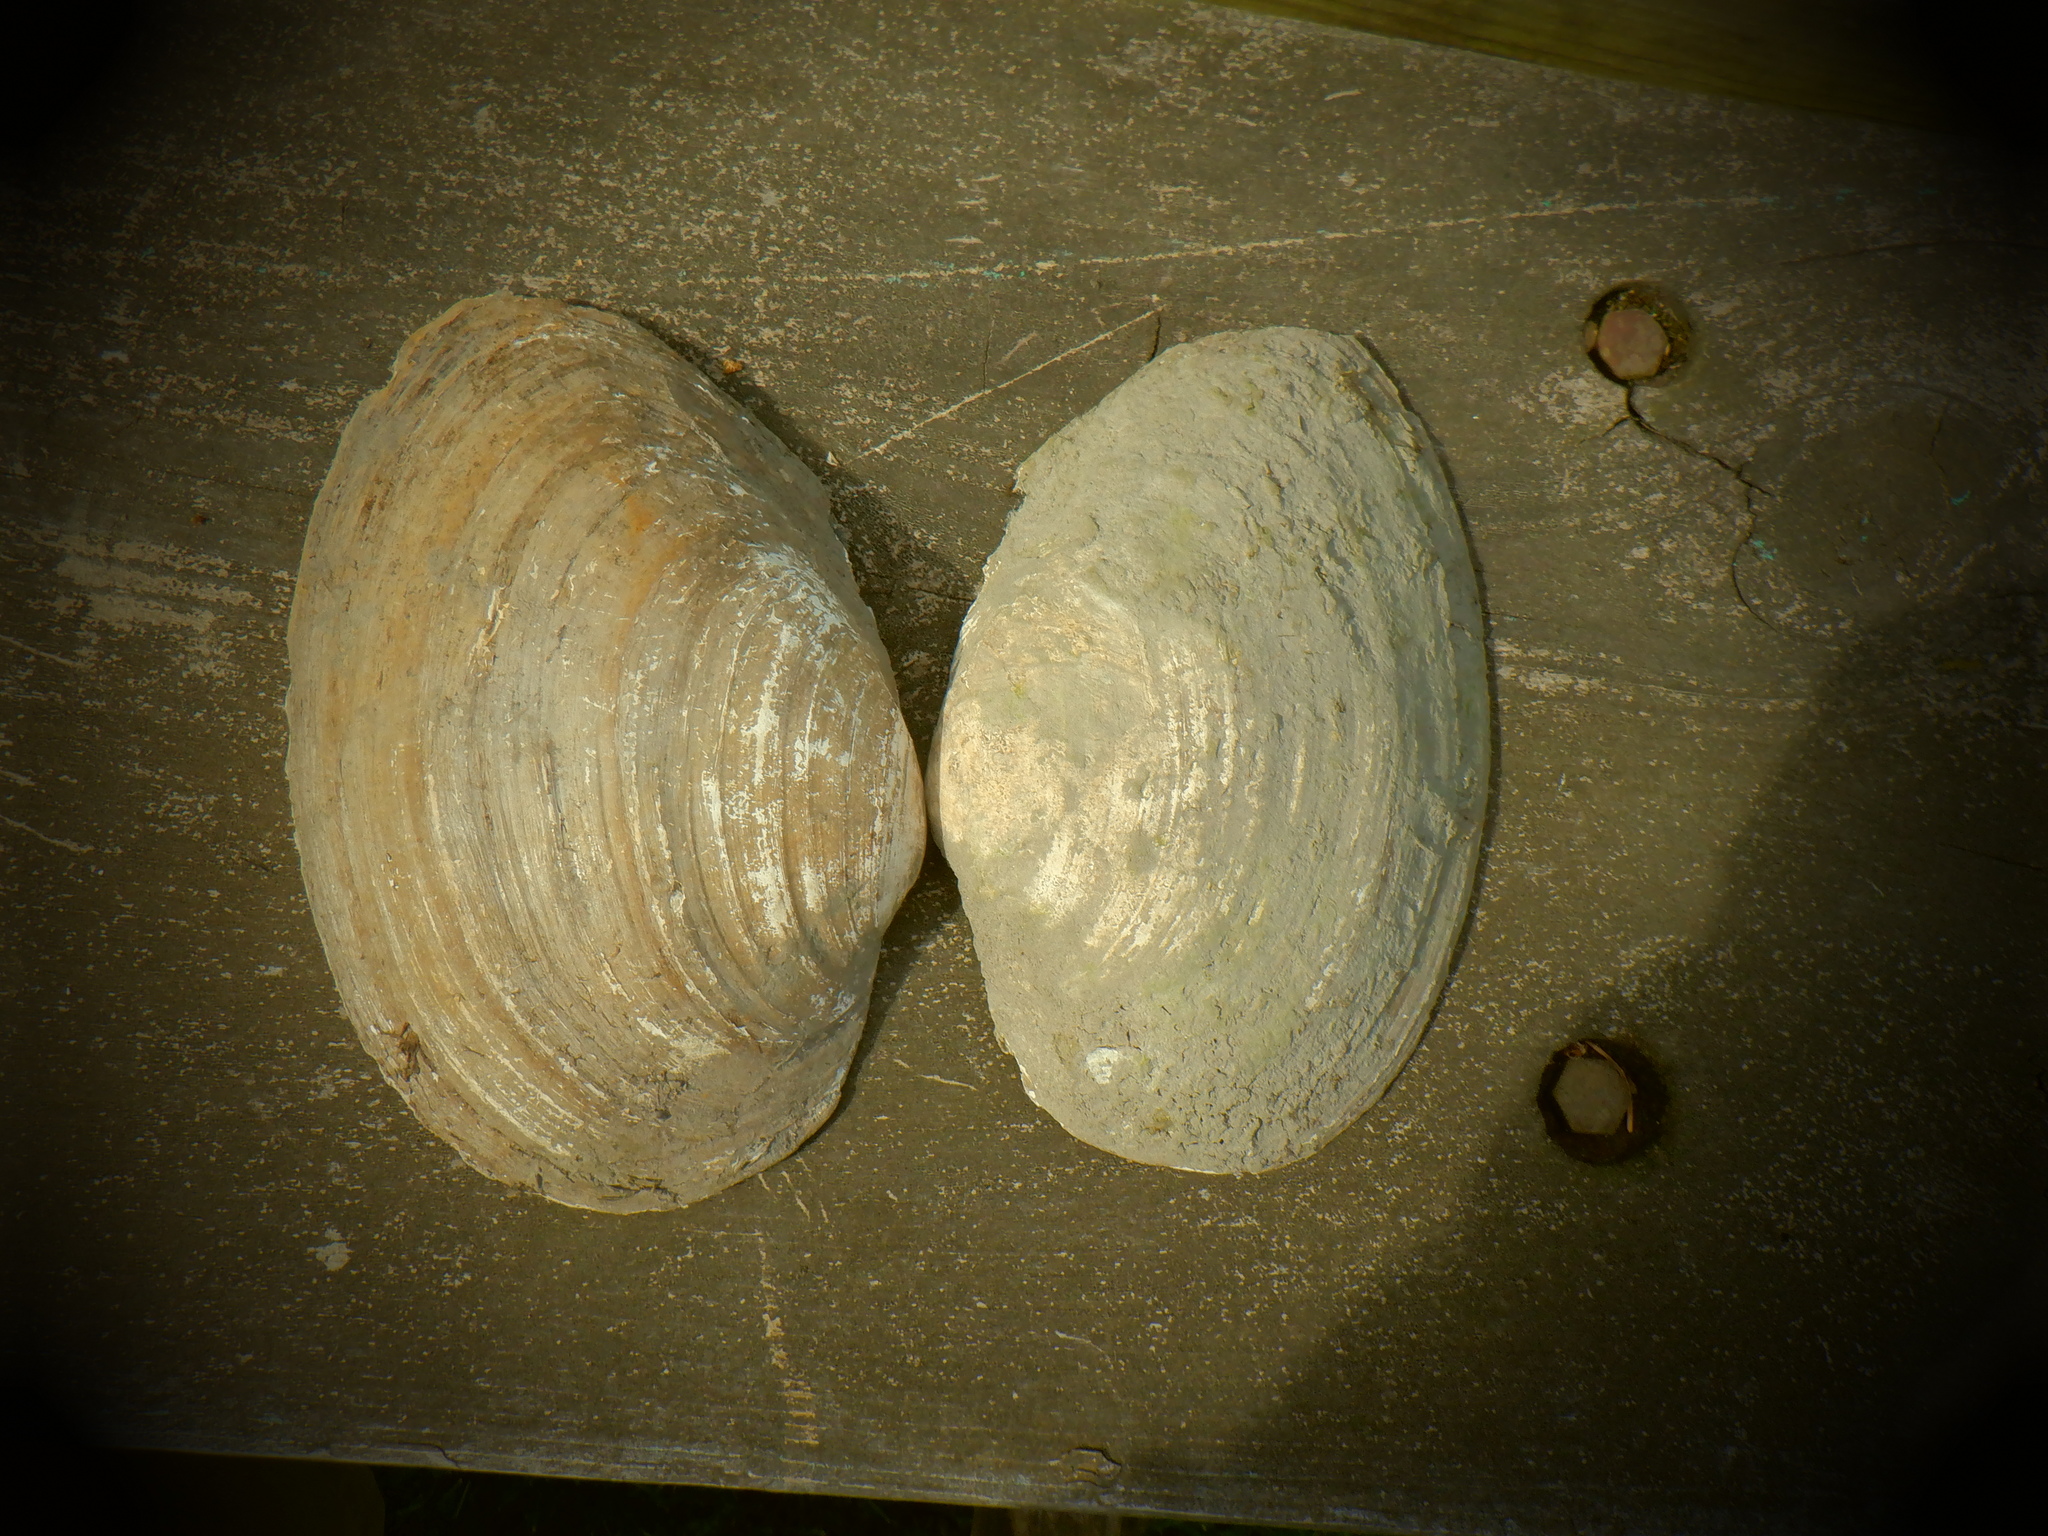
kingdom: Animalia
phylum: Mollusca
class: Bivalvia
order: Unionida
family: Unionidae
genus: Pyganodon
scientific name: Pyganodon grandis
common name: Giant floater
